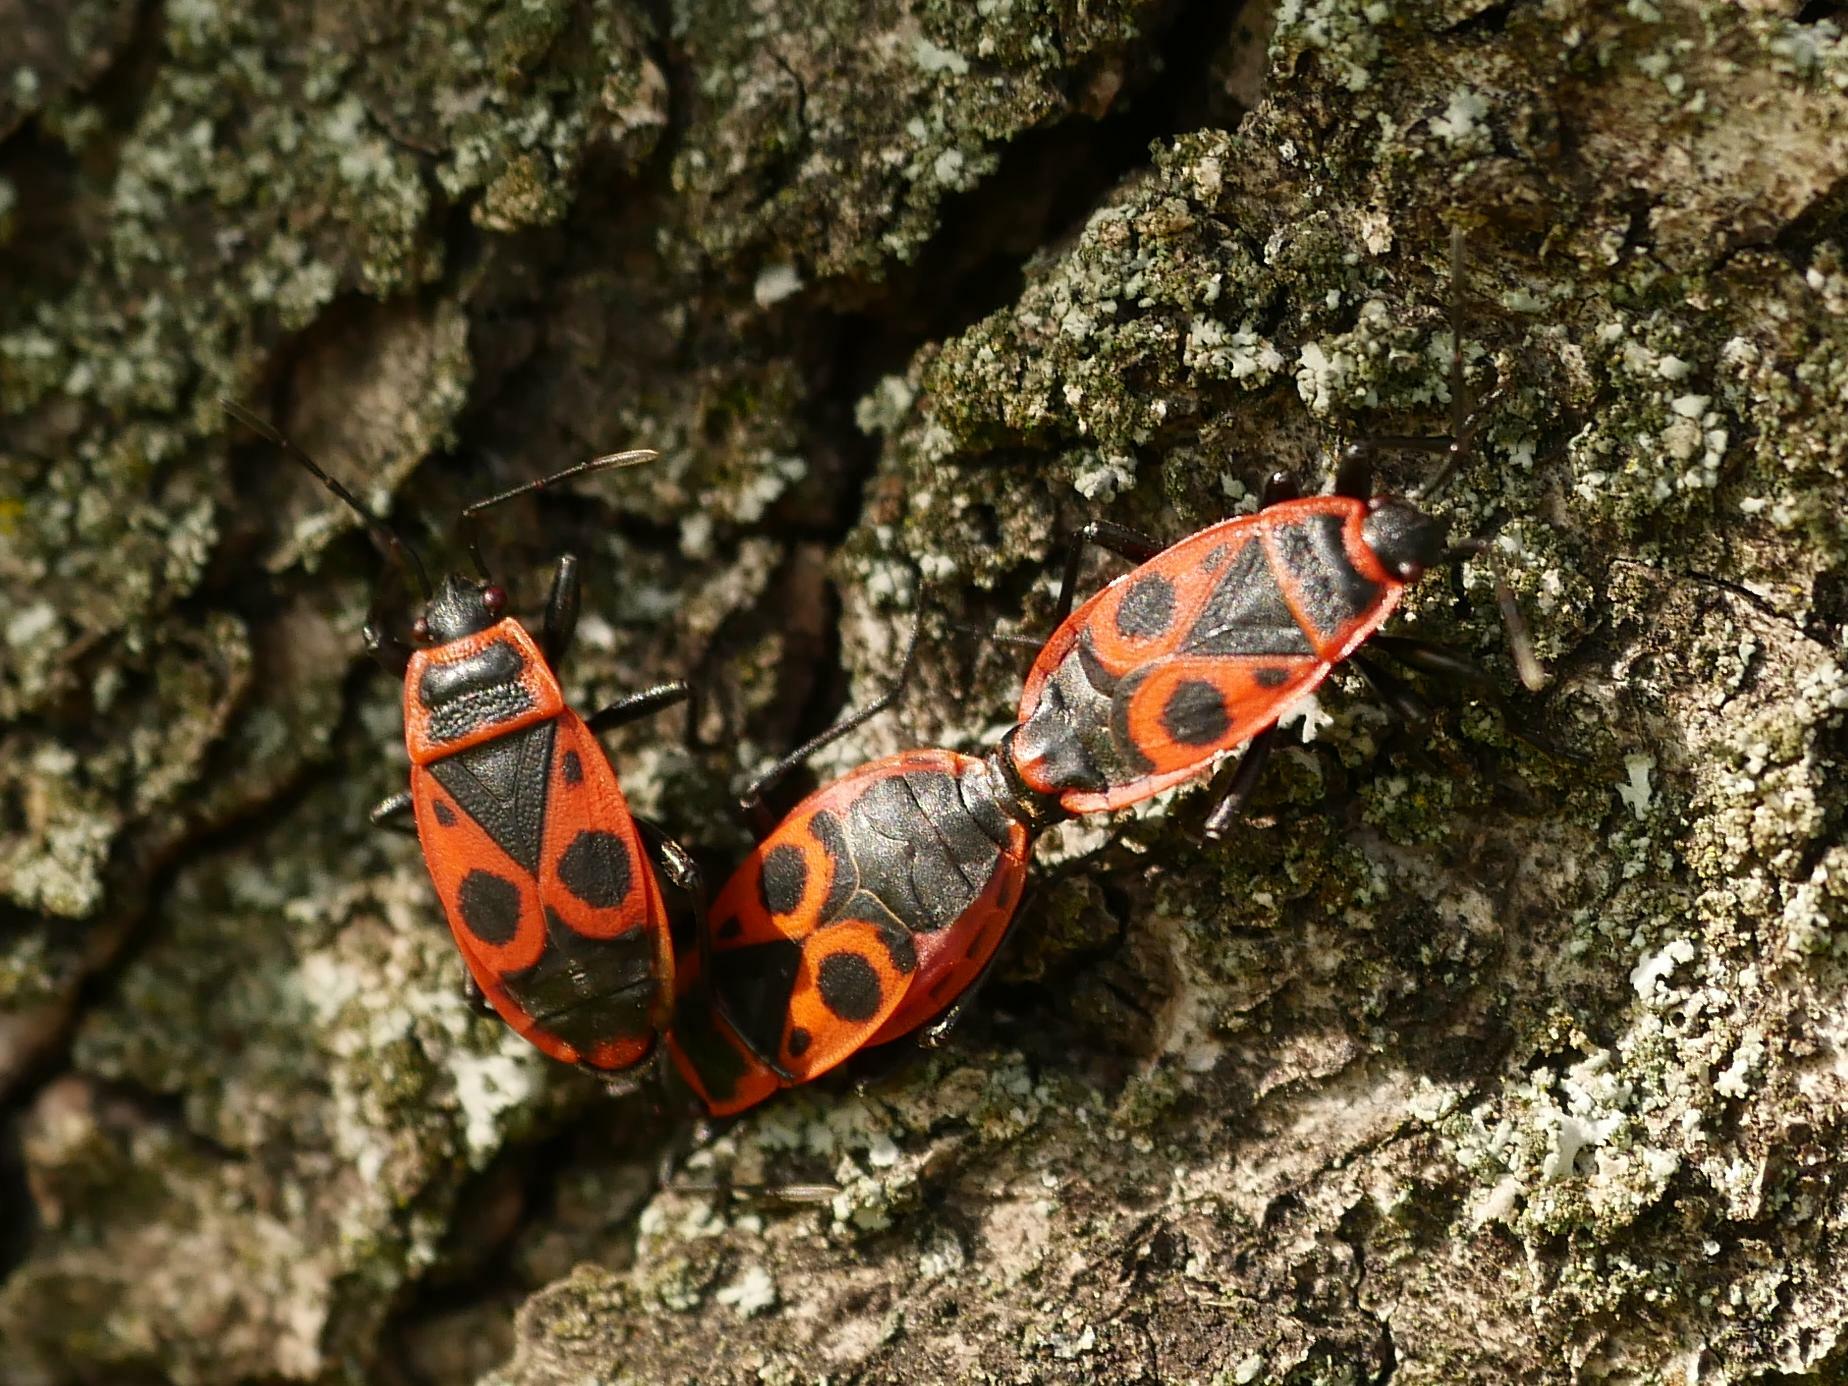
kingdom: Animalia
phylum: Arthropoda
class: Insecta
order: Hemiptera
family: Pyrrhocoridae
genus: Pyrrhocoris
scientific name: Pyrrhocoris apterus
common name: Firebug
